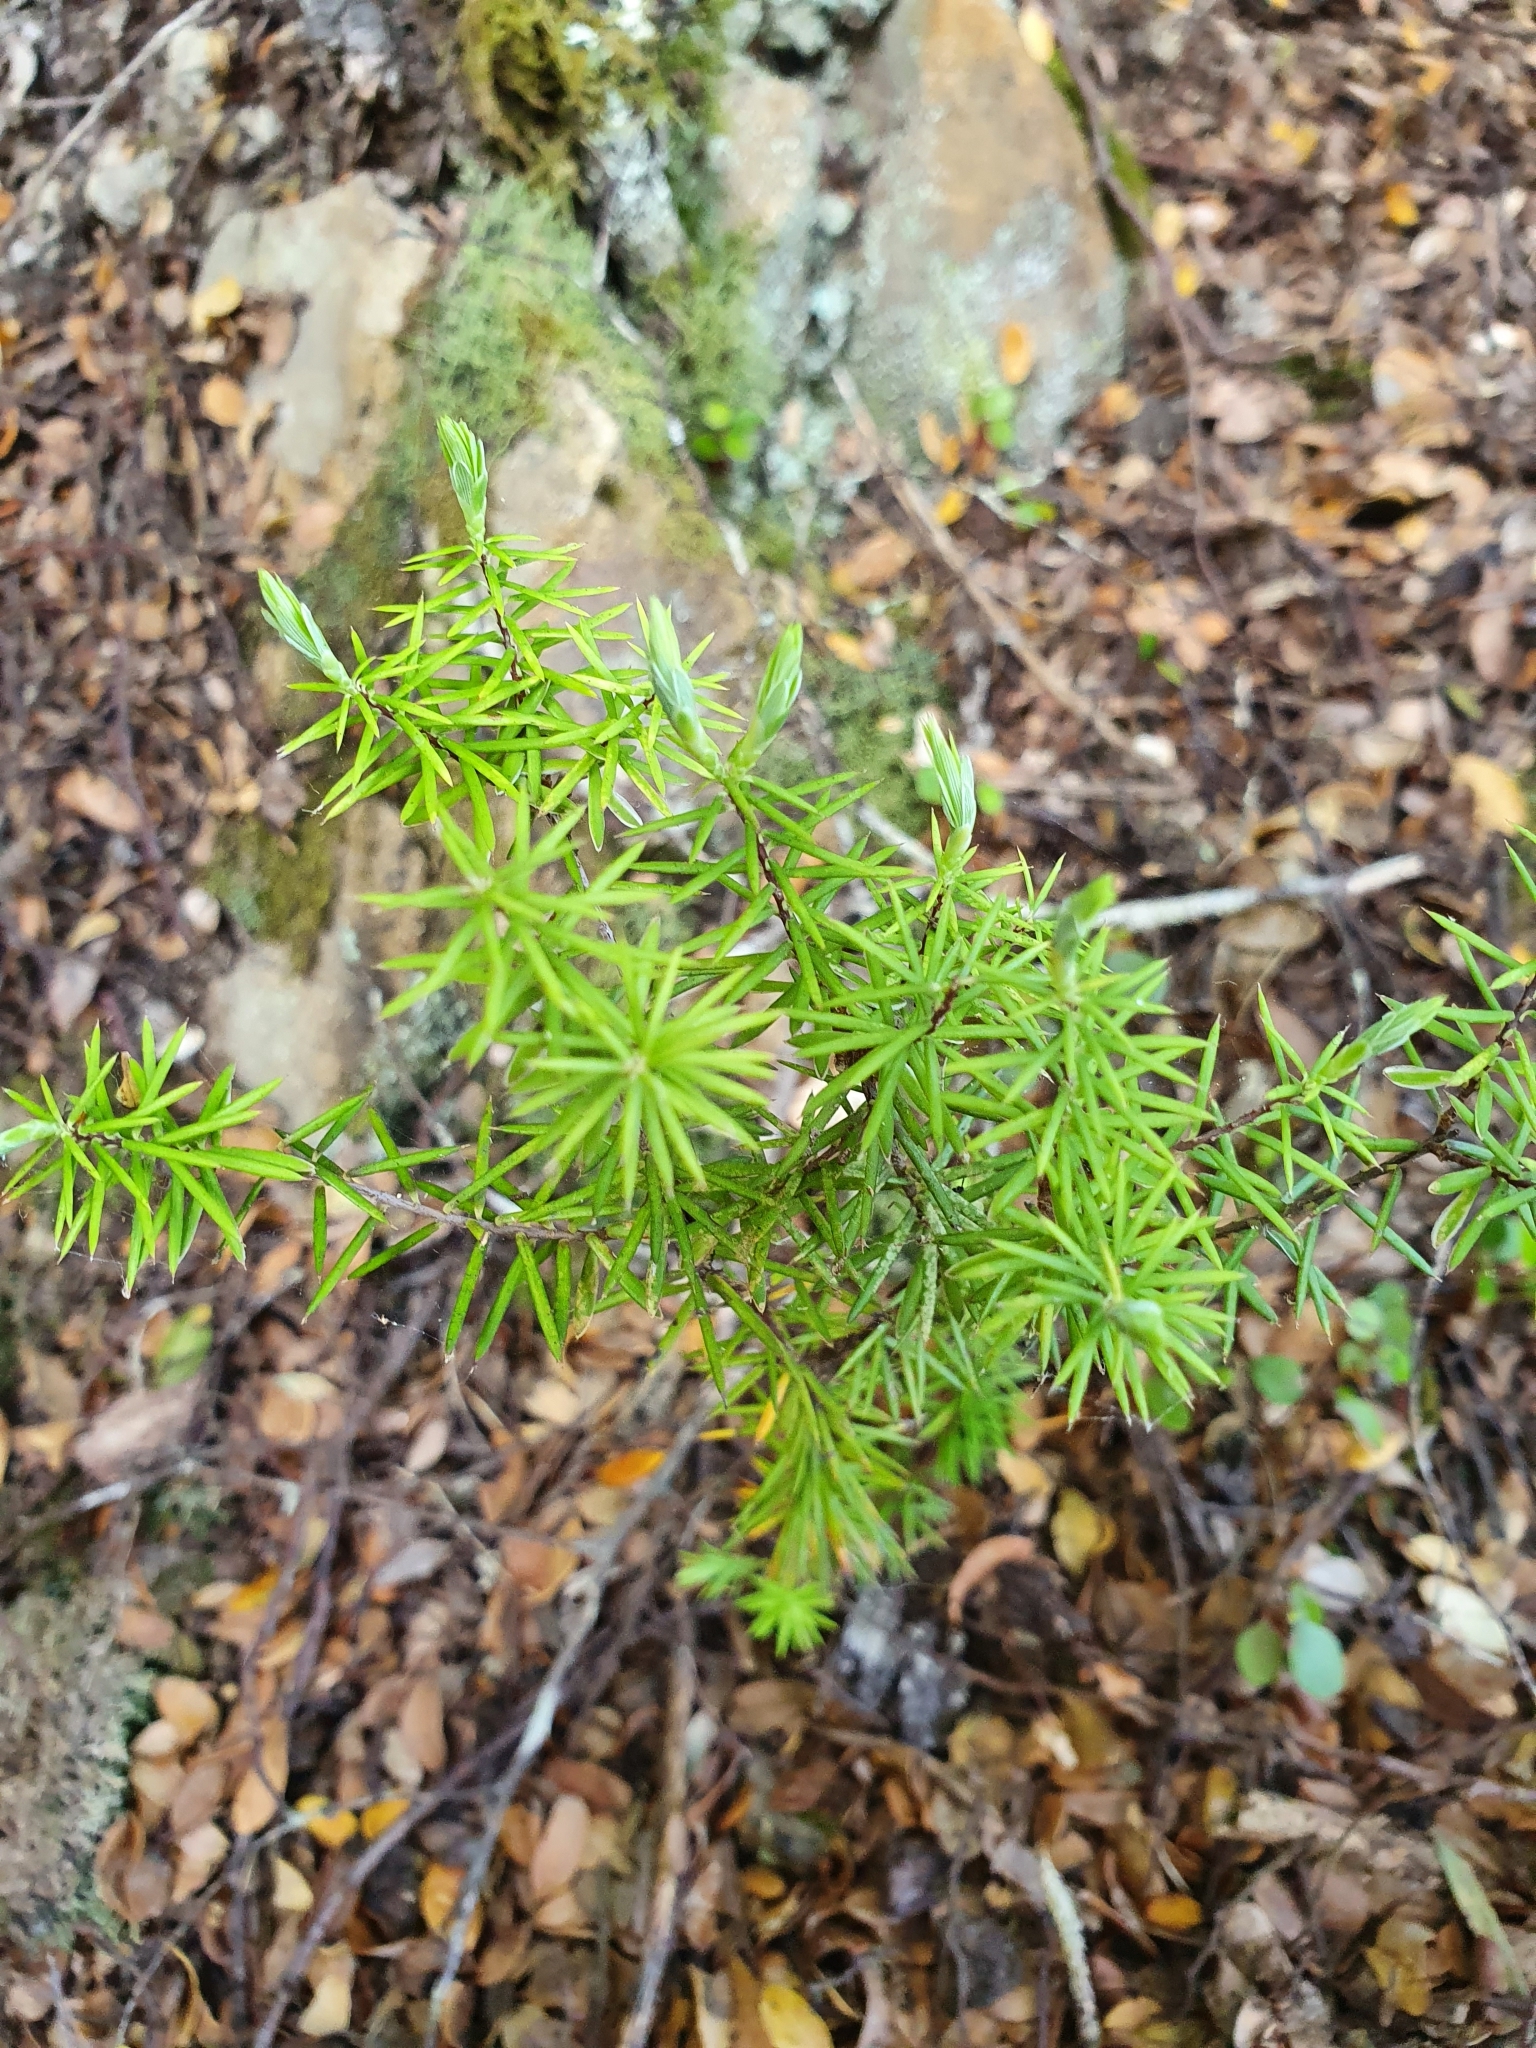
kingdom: Plantae
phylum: Tracheophyta
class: Magnoliopsida
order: Ericales
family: Ericaceae
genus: Leptecophylla
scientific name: Leptecophylla juniperina
